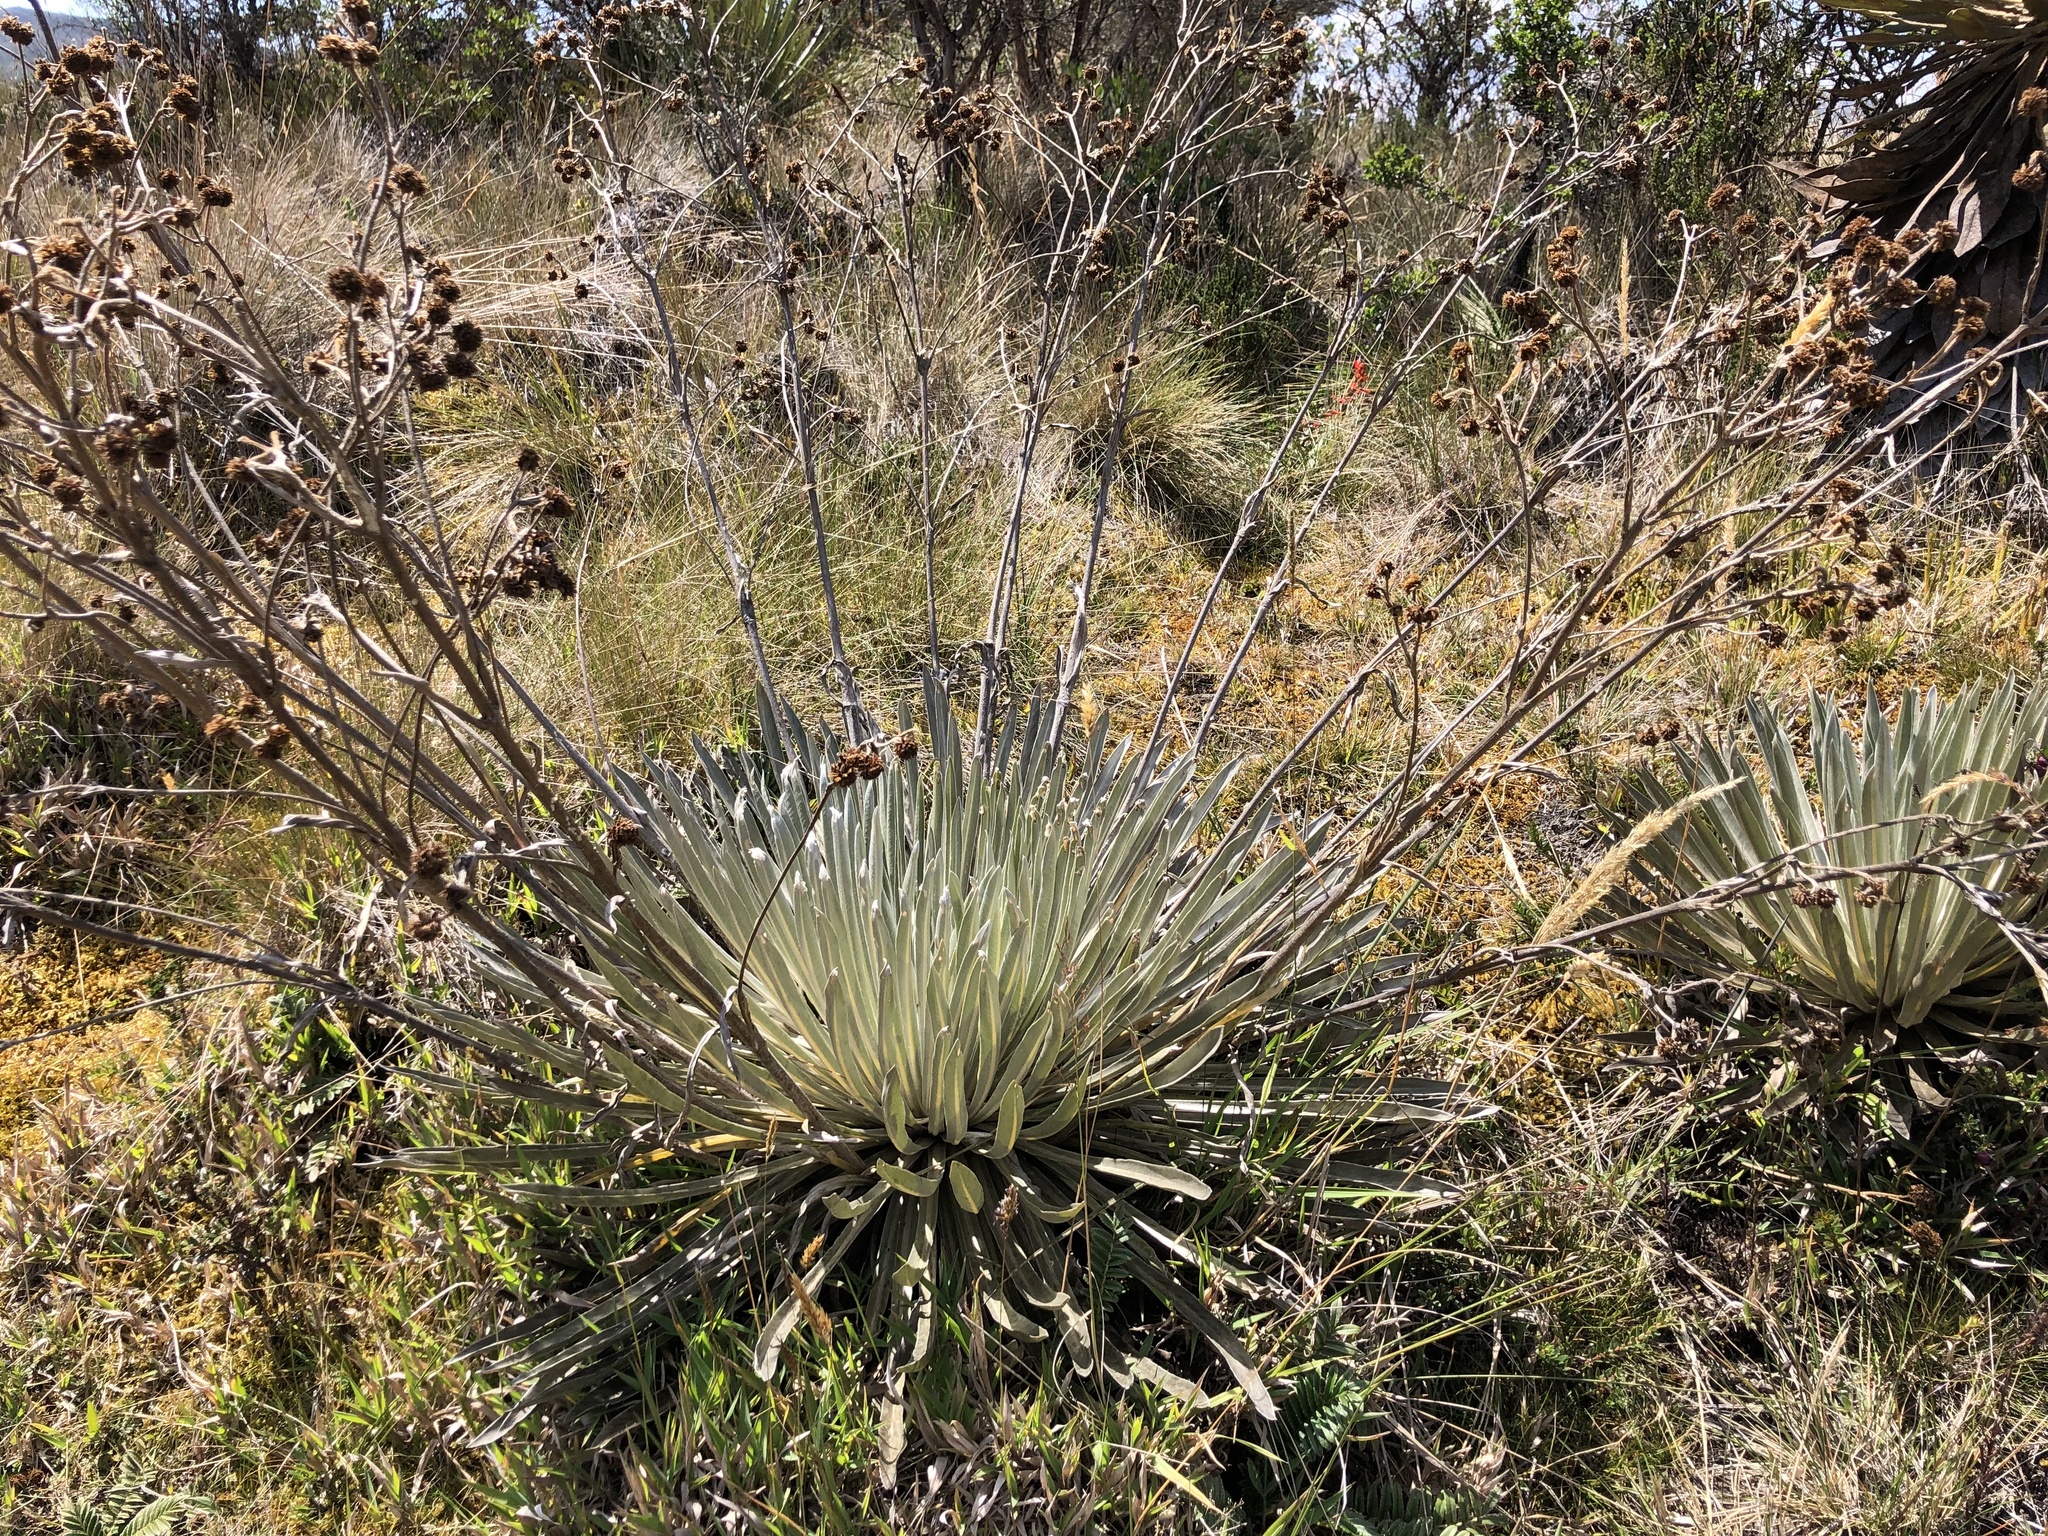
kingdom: Plantae
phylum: Tracheophyta
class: Magnoliopsida
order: Asterales
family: Asteraceae
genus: Espeletia
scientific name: Espeletia argentea
